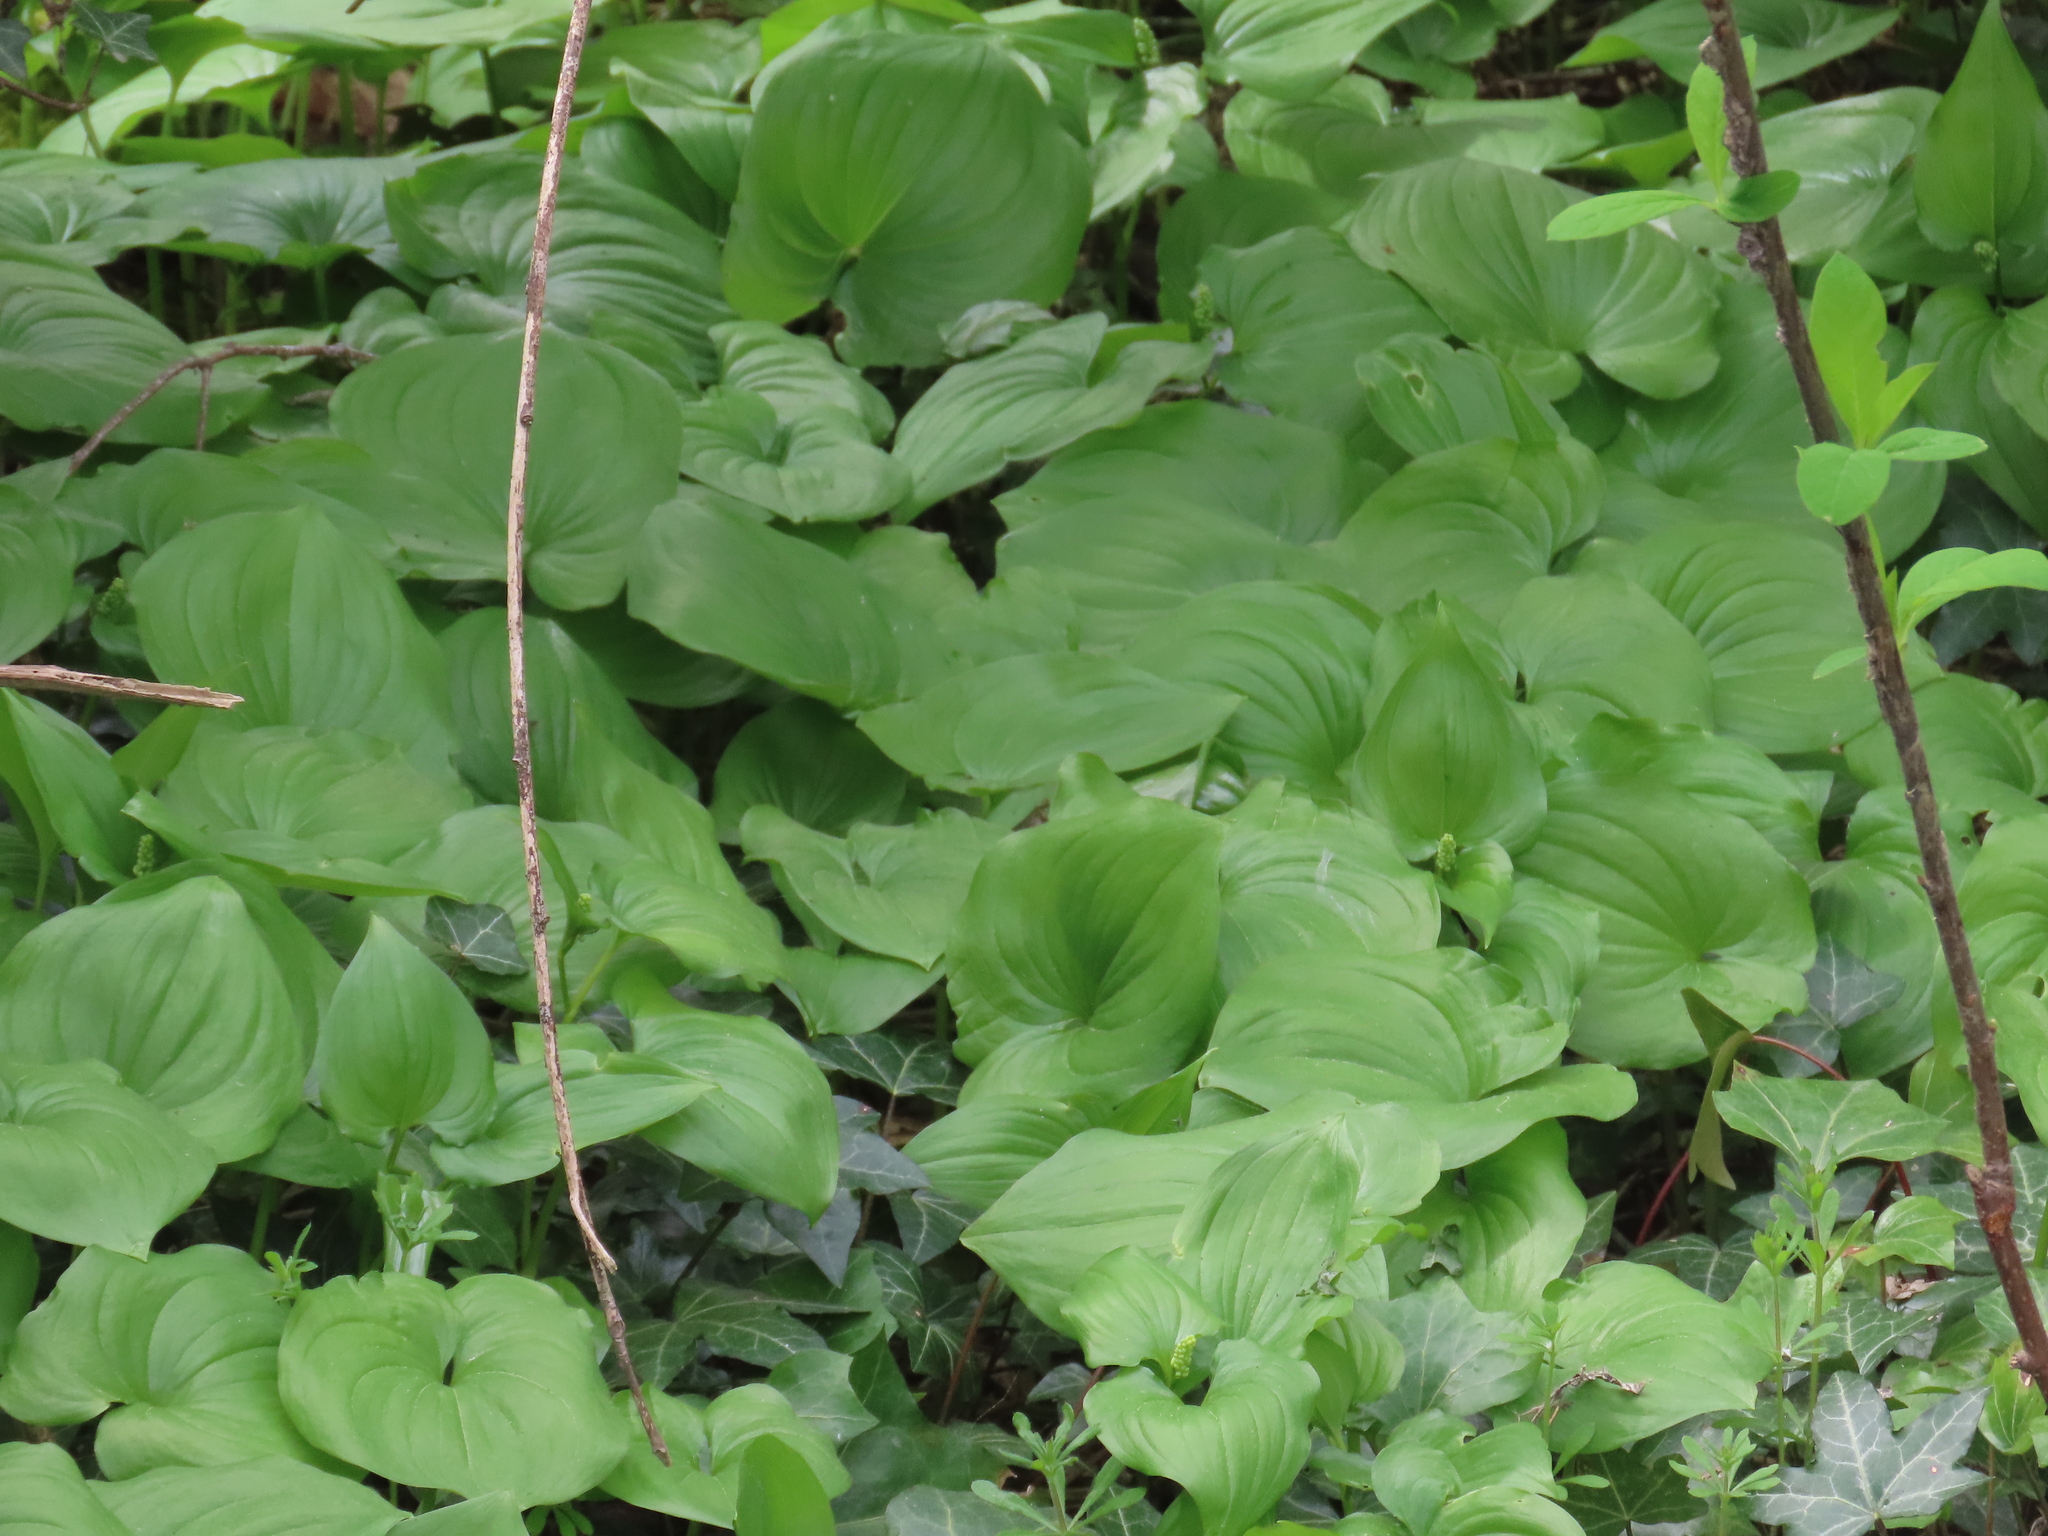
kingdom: Plantae
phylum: Tracheophyta
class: Liliopsida
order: Asparagales
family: Asparagaceae
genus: Maianthemum
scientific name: Maianthemum dilatatum
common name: False lily-of-the-valley
